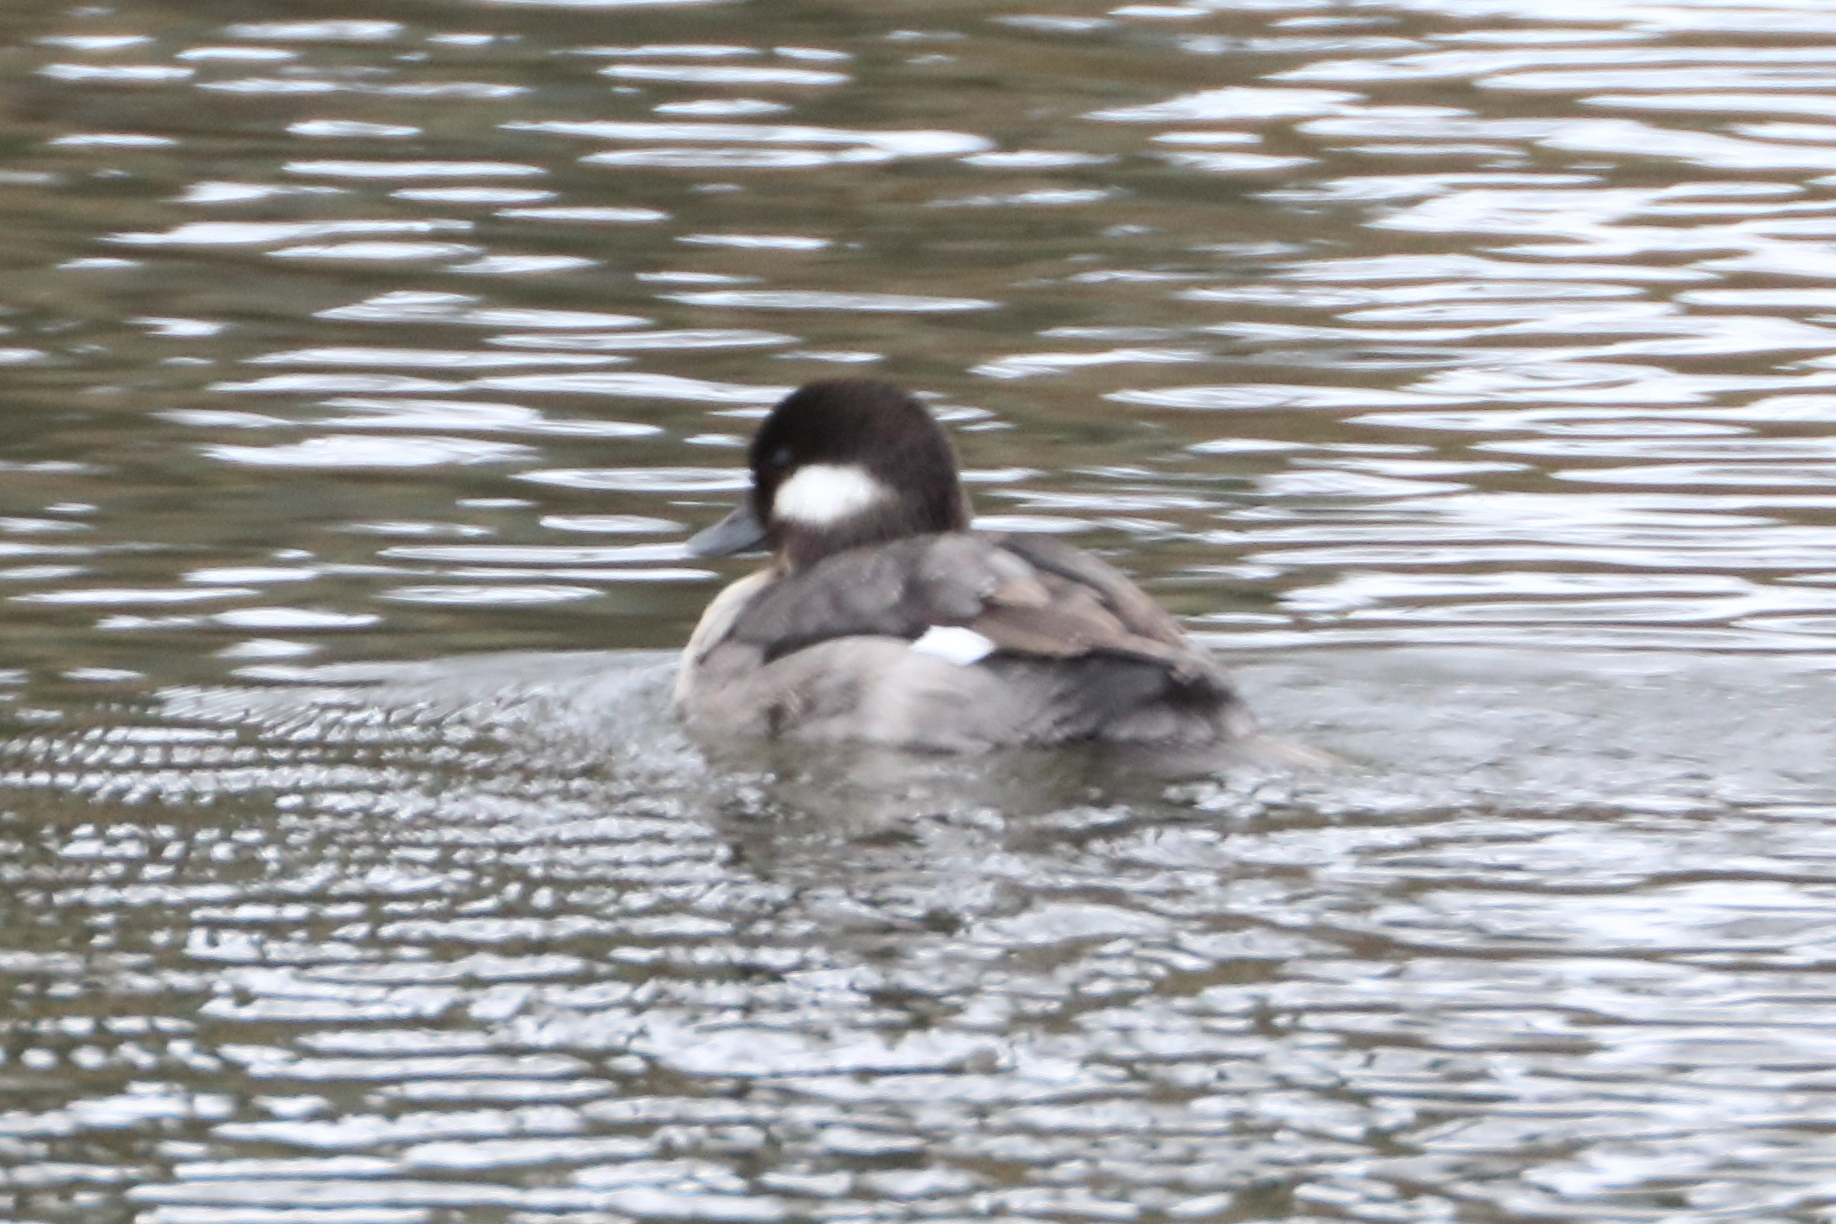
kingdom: Animalia
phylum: Chordata
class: Aves
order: Anseriformes
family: Anatidae
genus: Bucephala
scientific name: Bucephala albeola
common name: Bufflehead
